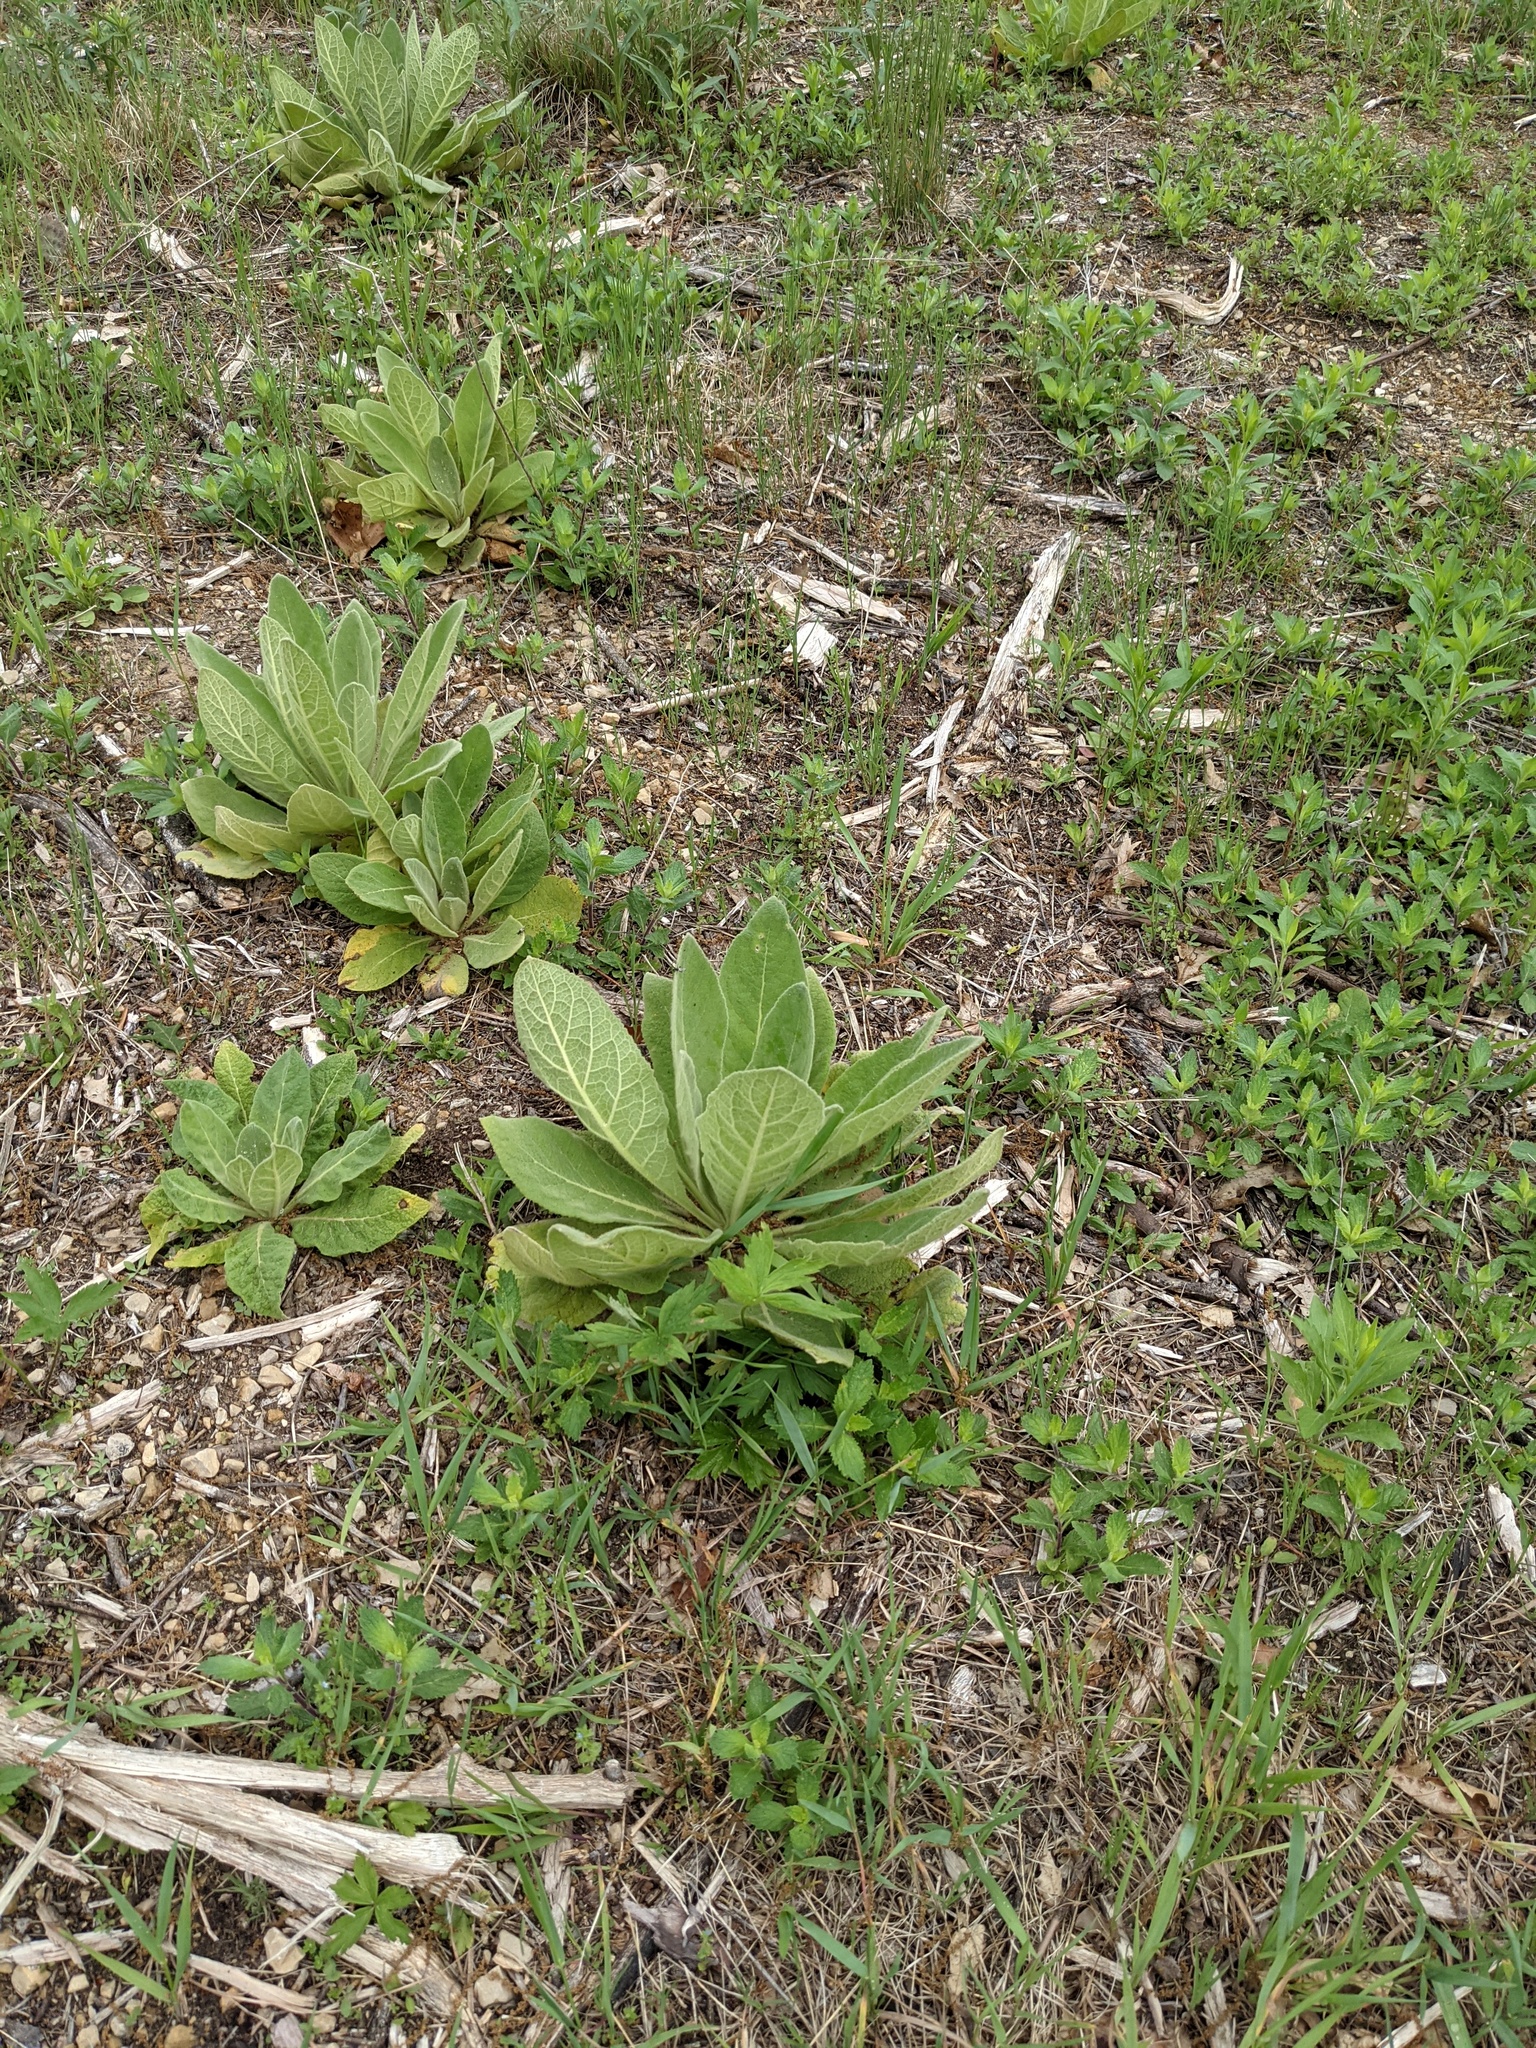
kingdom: Plantae
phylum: Tracheophyta
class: Magnoliopsida
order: Lamiales
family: Scrophulariaceae
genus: Verbascum
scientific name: Verbascum thapsus
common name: Common mullein
